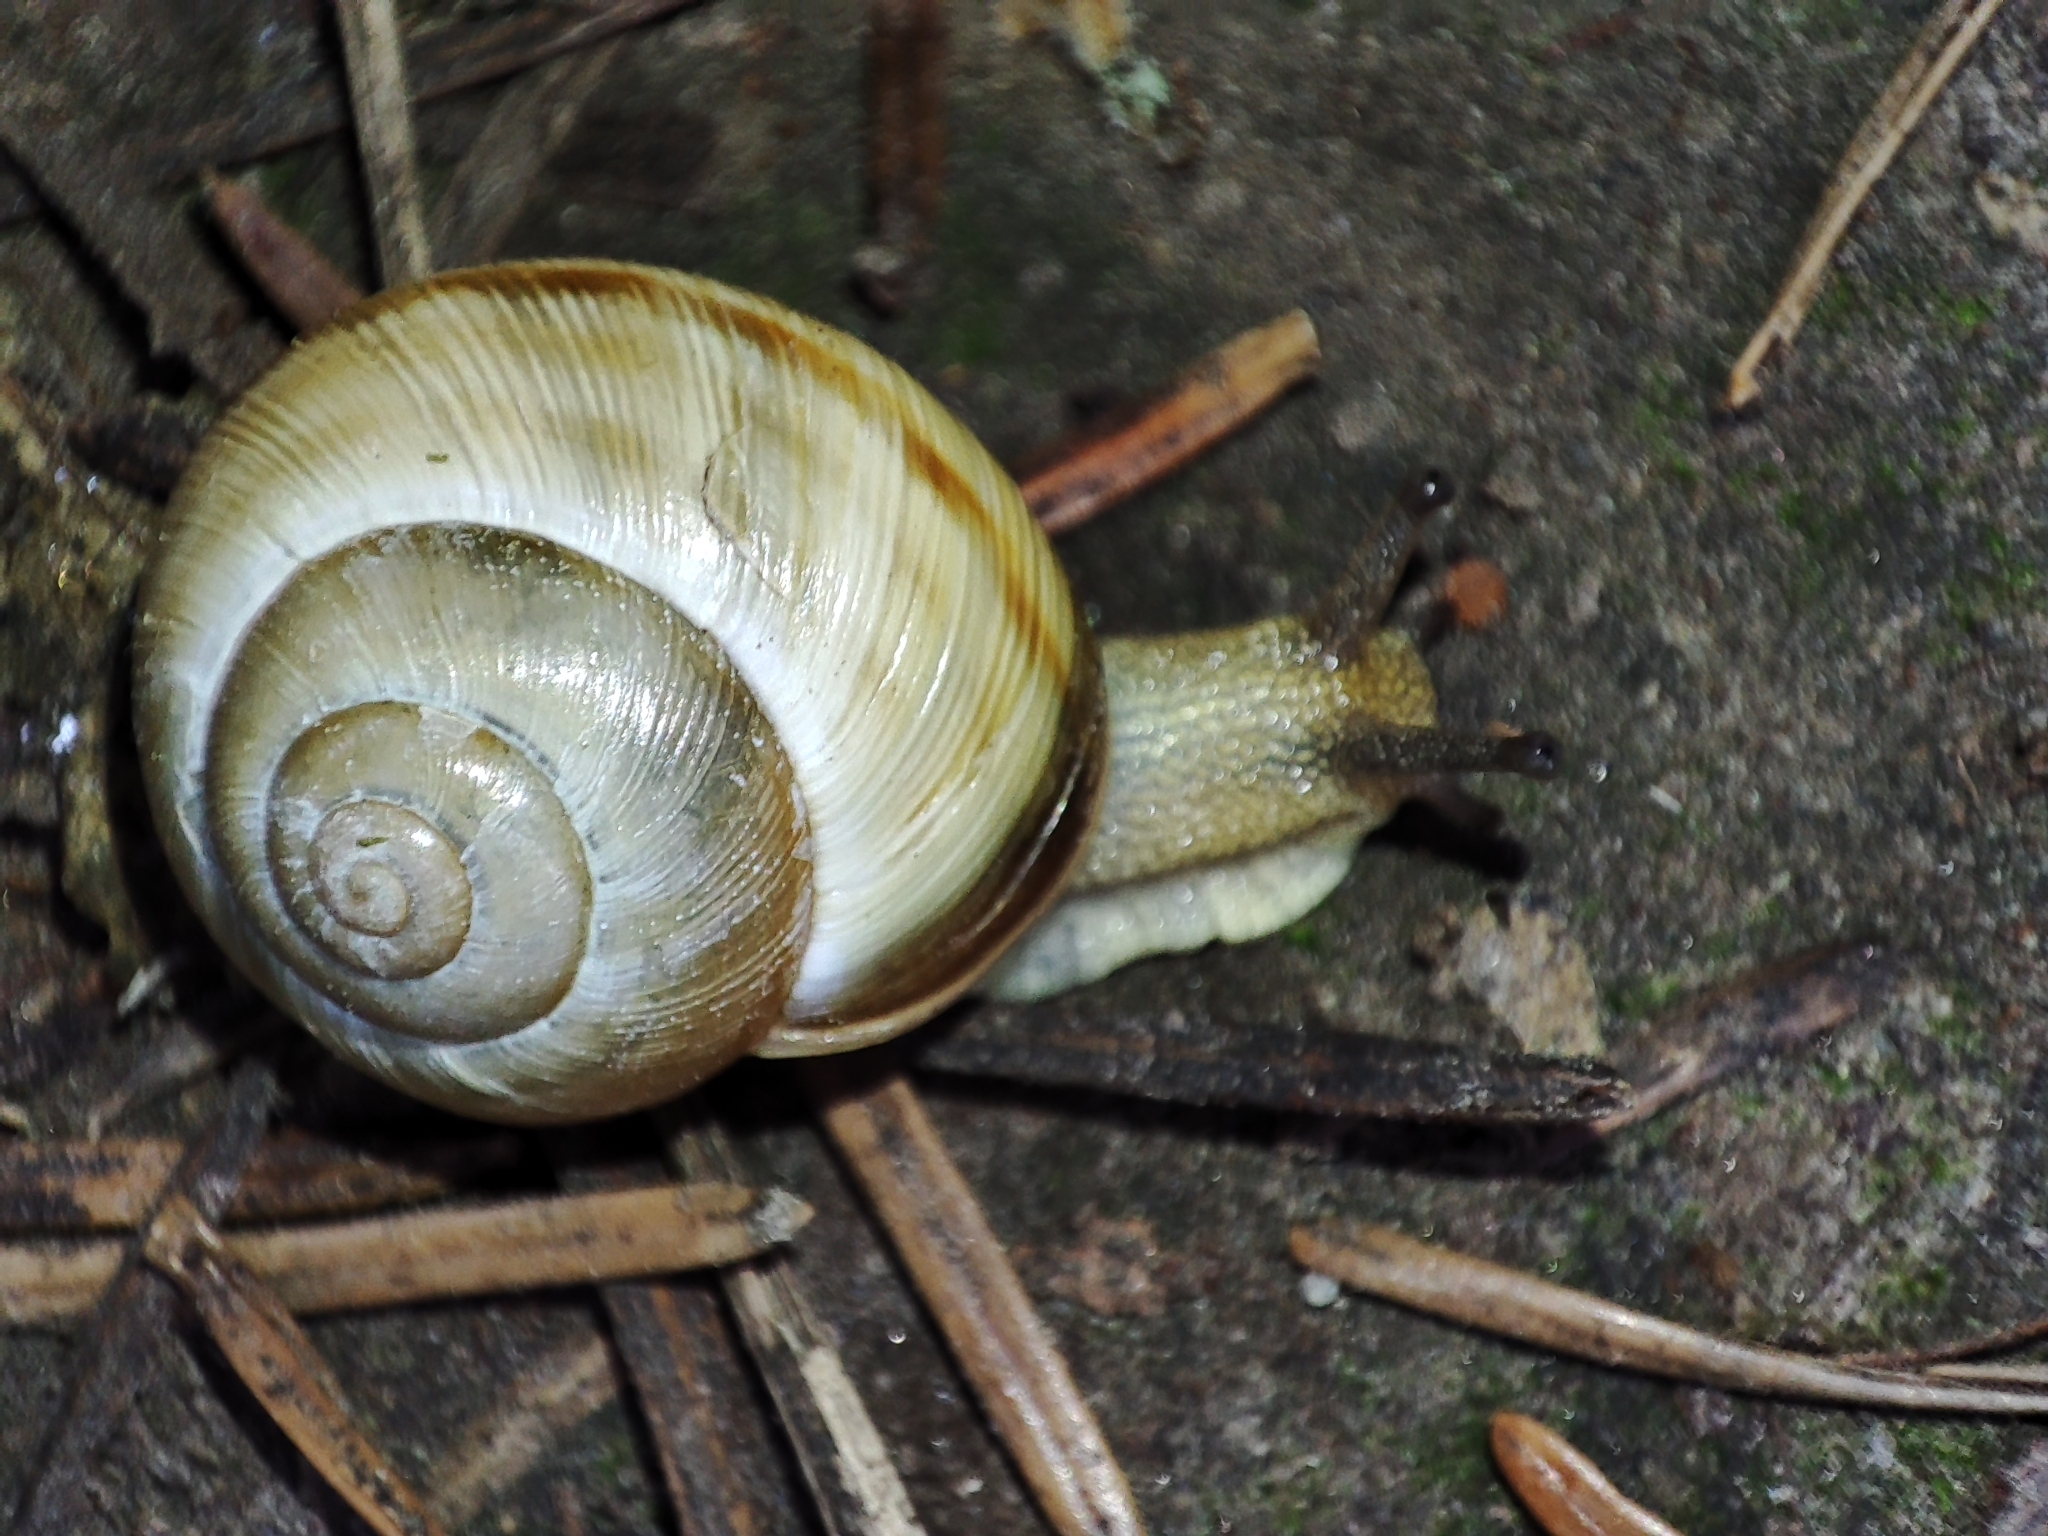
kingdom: Animalia
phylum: Mollusca
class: Gastropoda
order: Stylommatophora
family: Helicidae
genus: Caucasotachea
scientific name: Caucasotachea vindobonensis
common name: European helicid land snail
